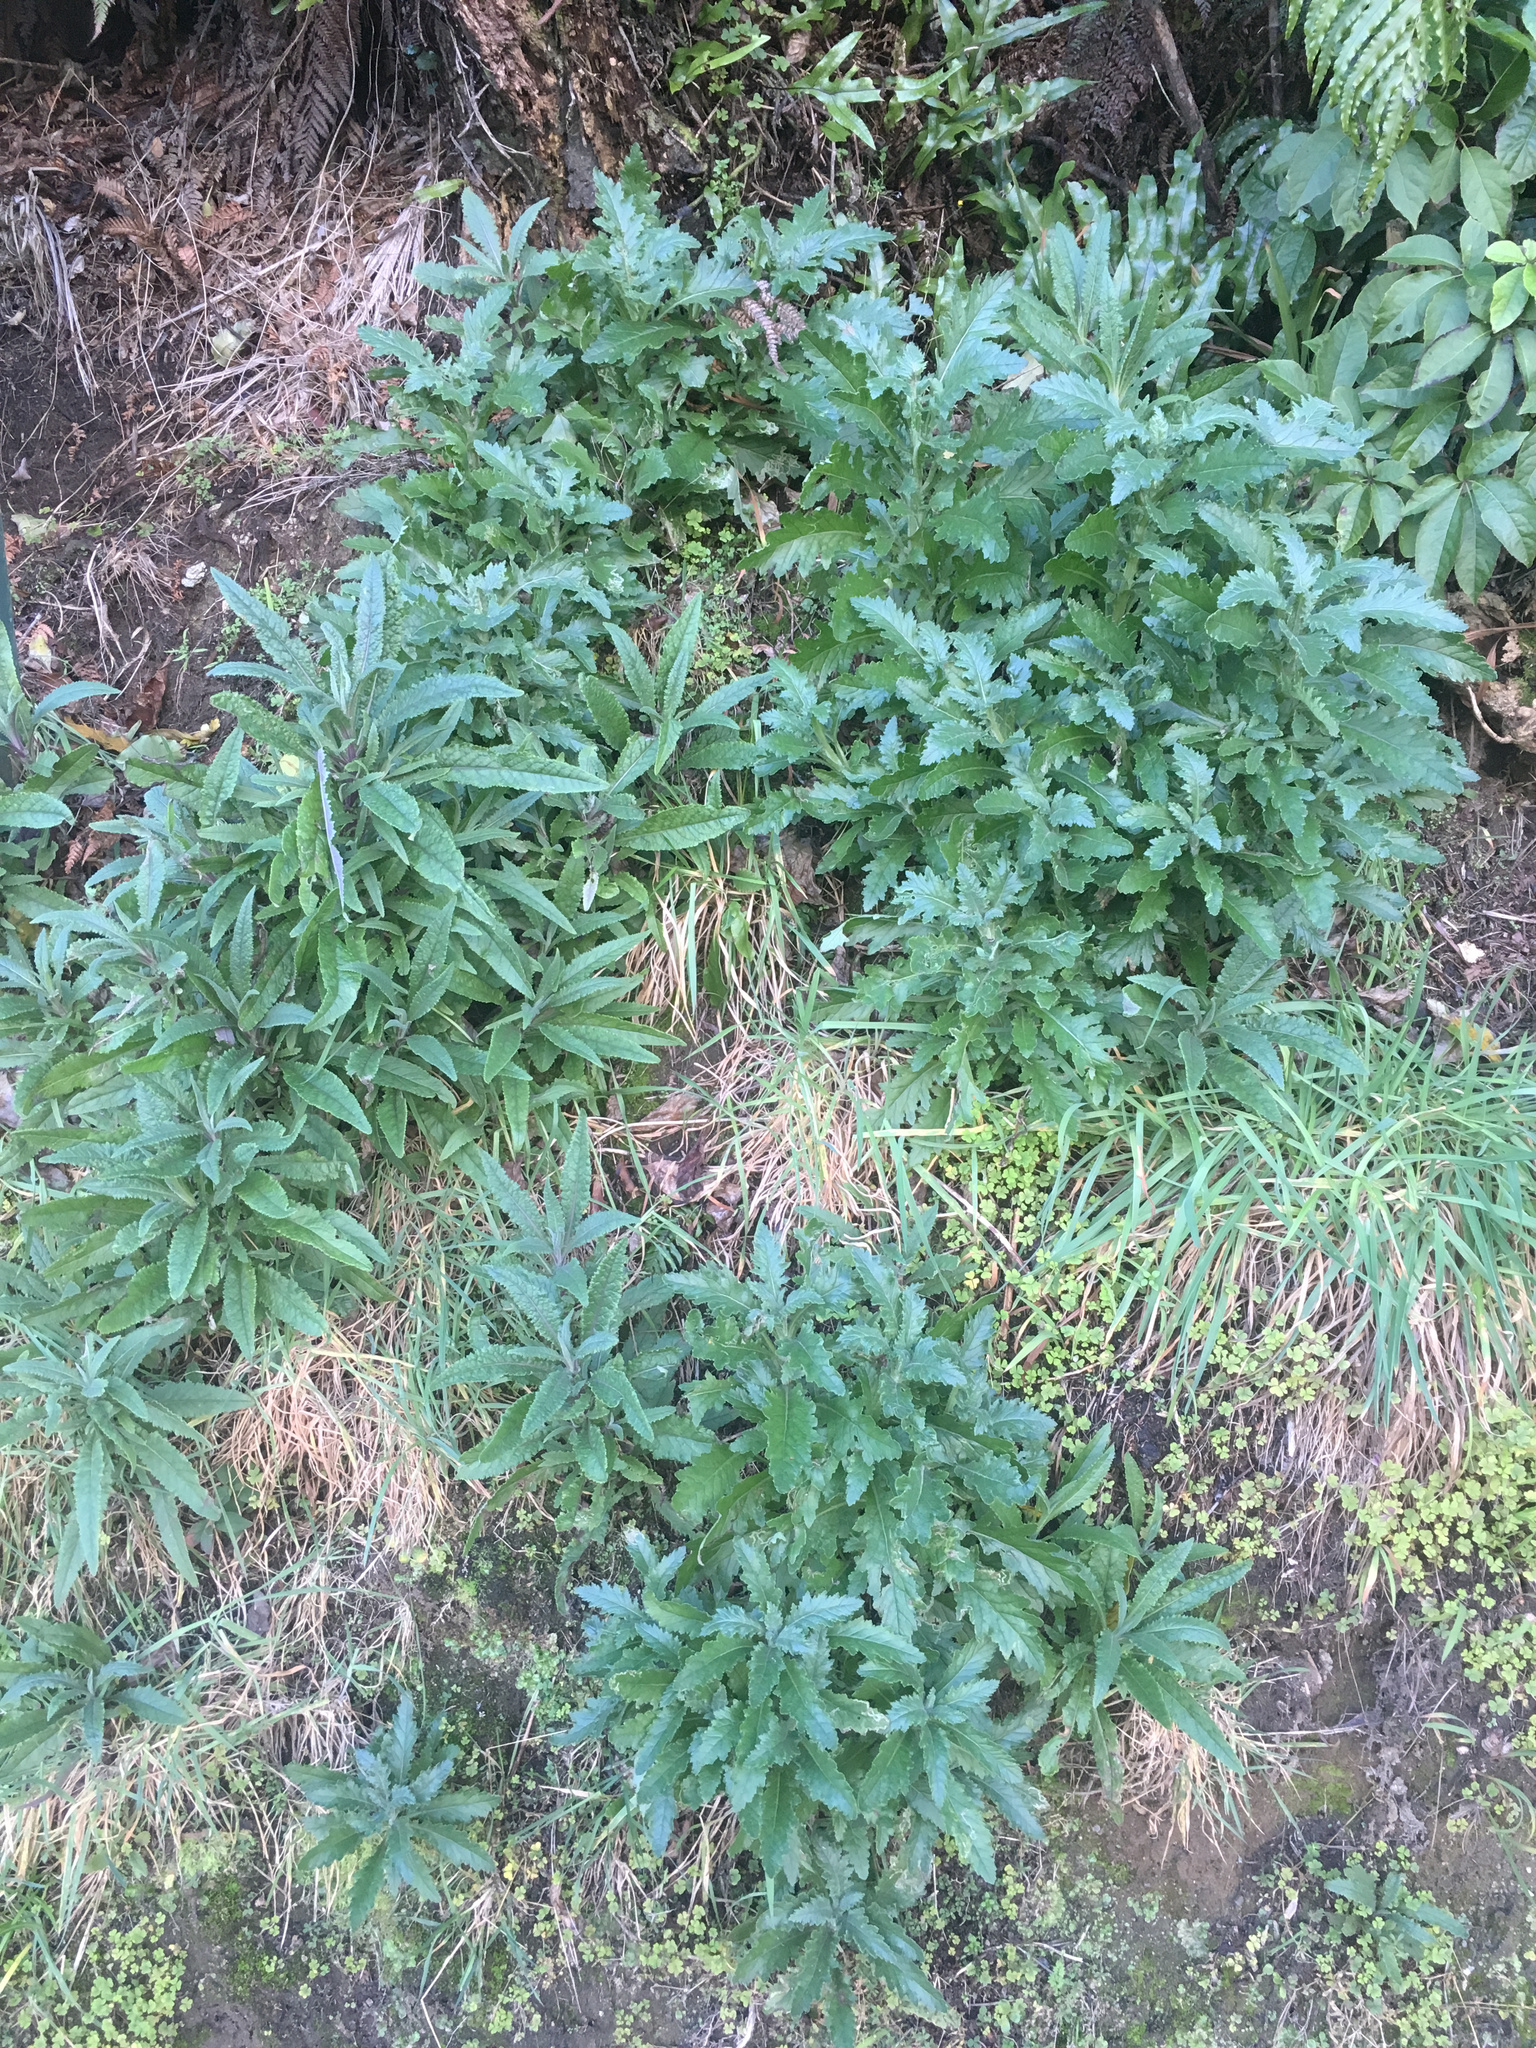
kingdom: Plantae
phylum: Tracheophyta
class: Magnoliopsida
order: Asterales
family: Asteraceae
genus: Senecio
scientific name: Senecio minimus
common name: Toothed fireweed
